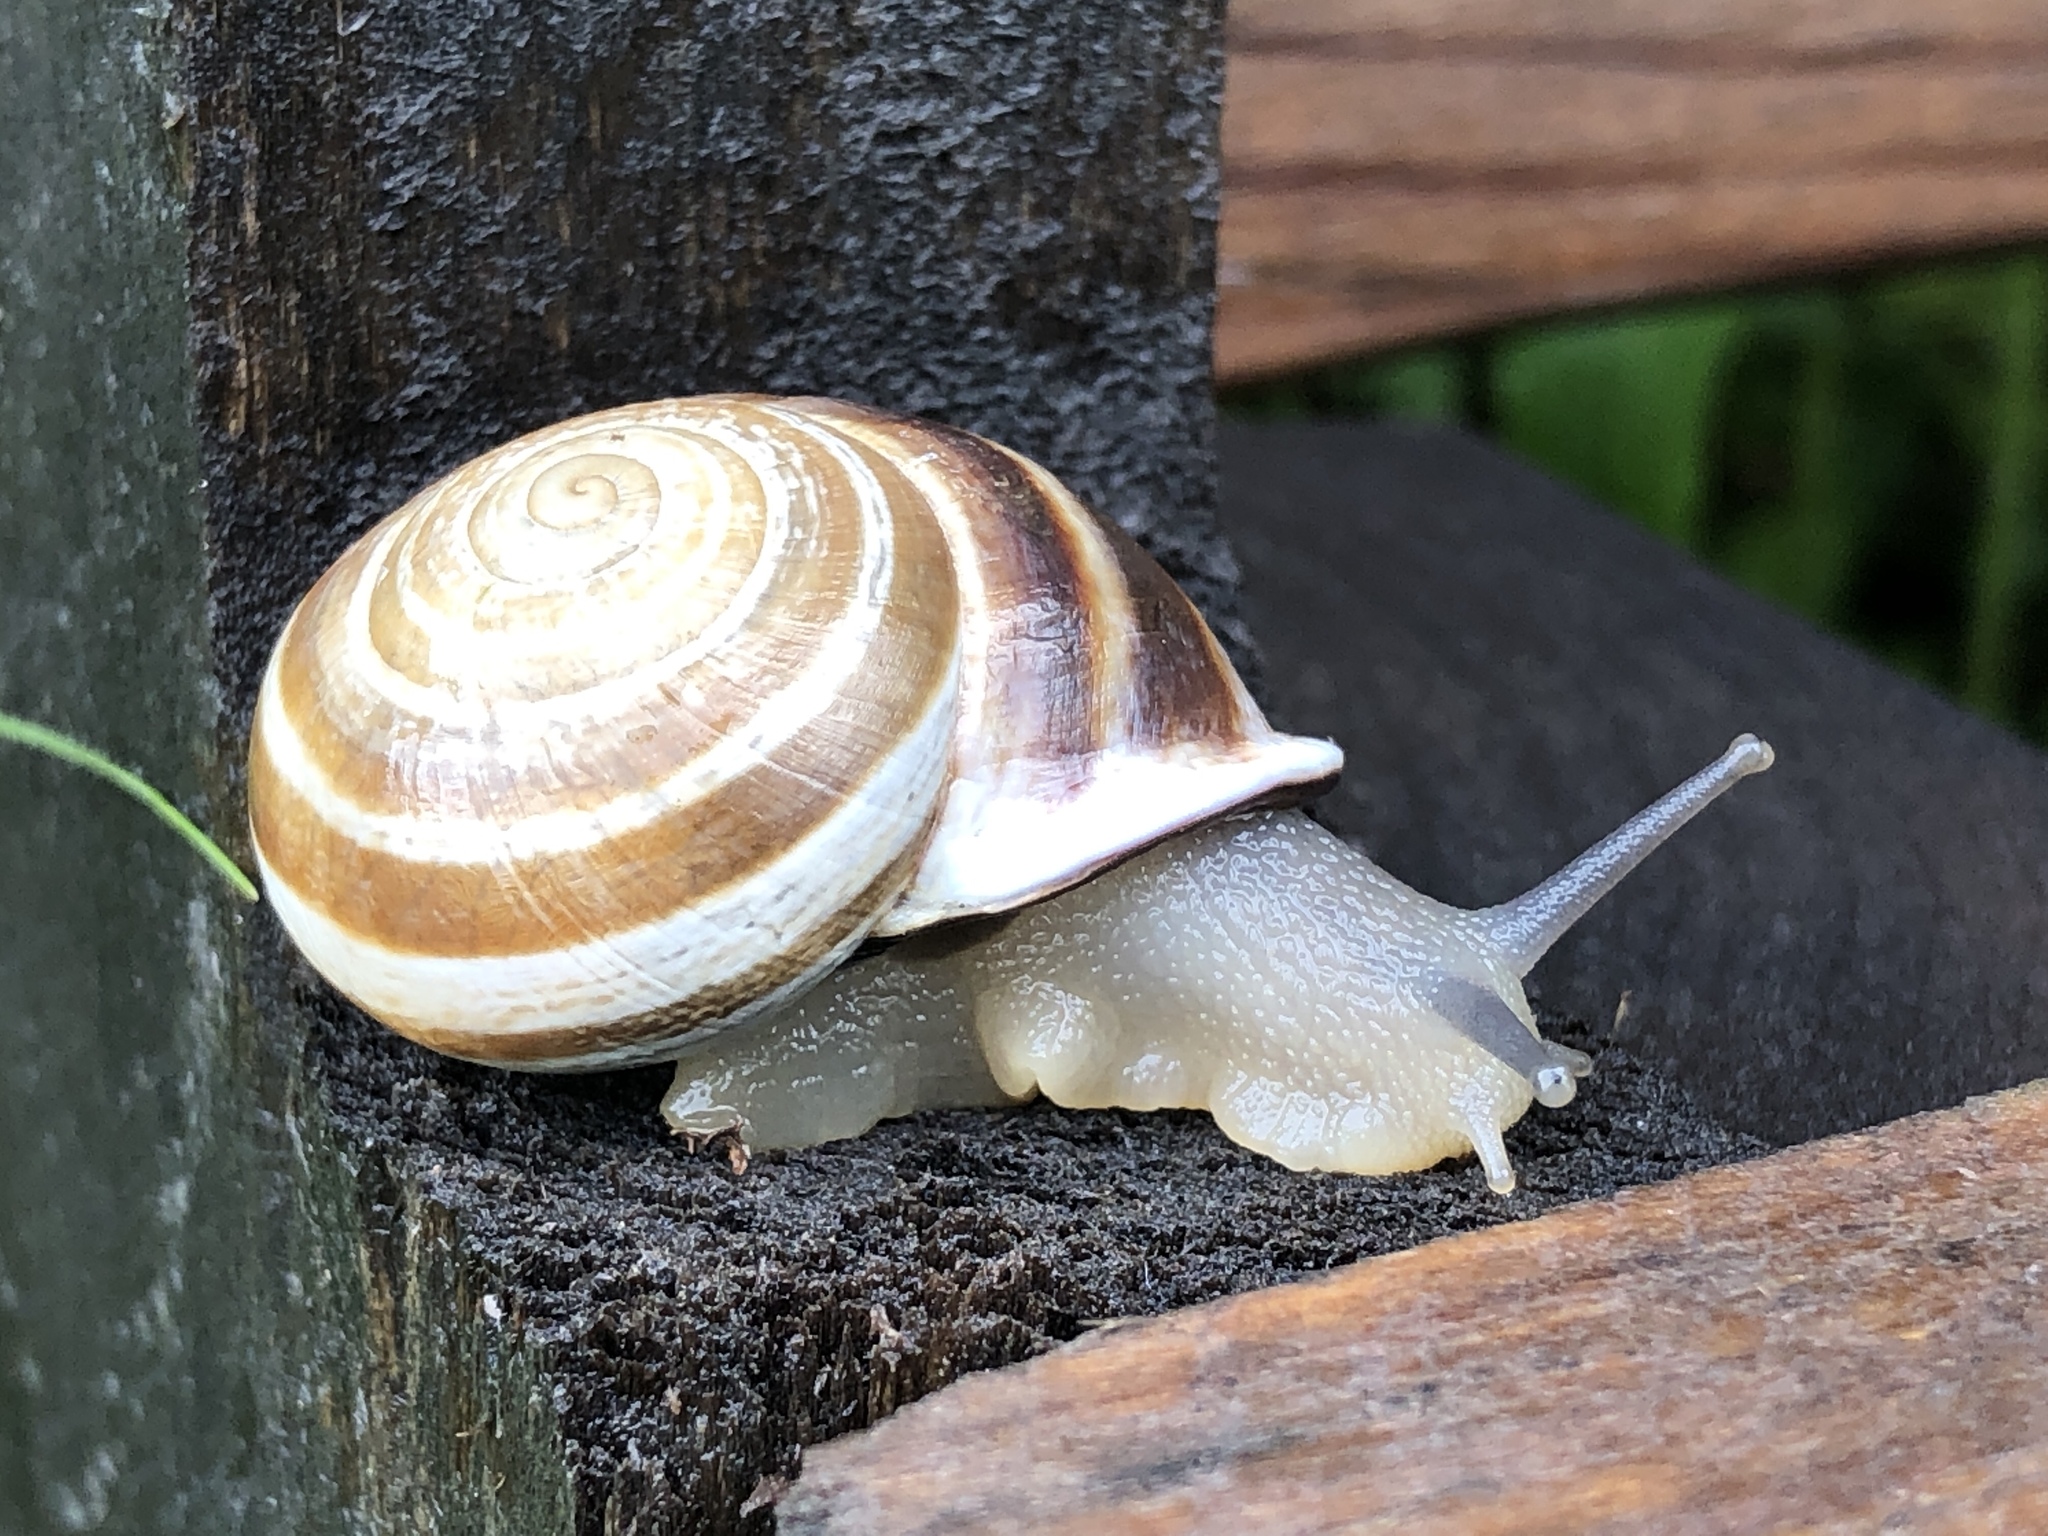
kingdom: Animalia
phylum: Mollusca
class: Gastropoda
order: Stylommatophora
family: Helicidae
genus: Otala
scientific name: Otala lactea
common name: Milk snail
